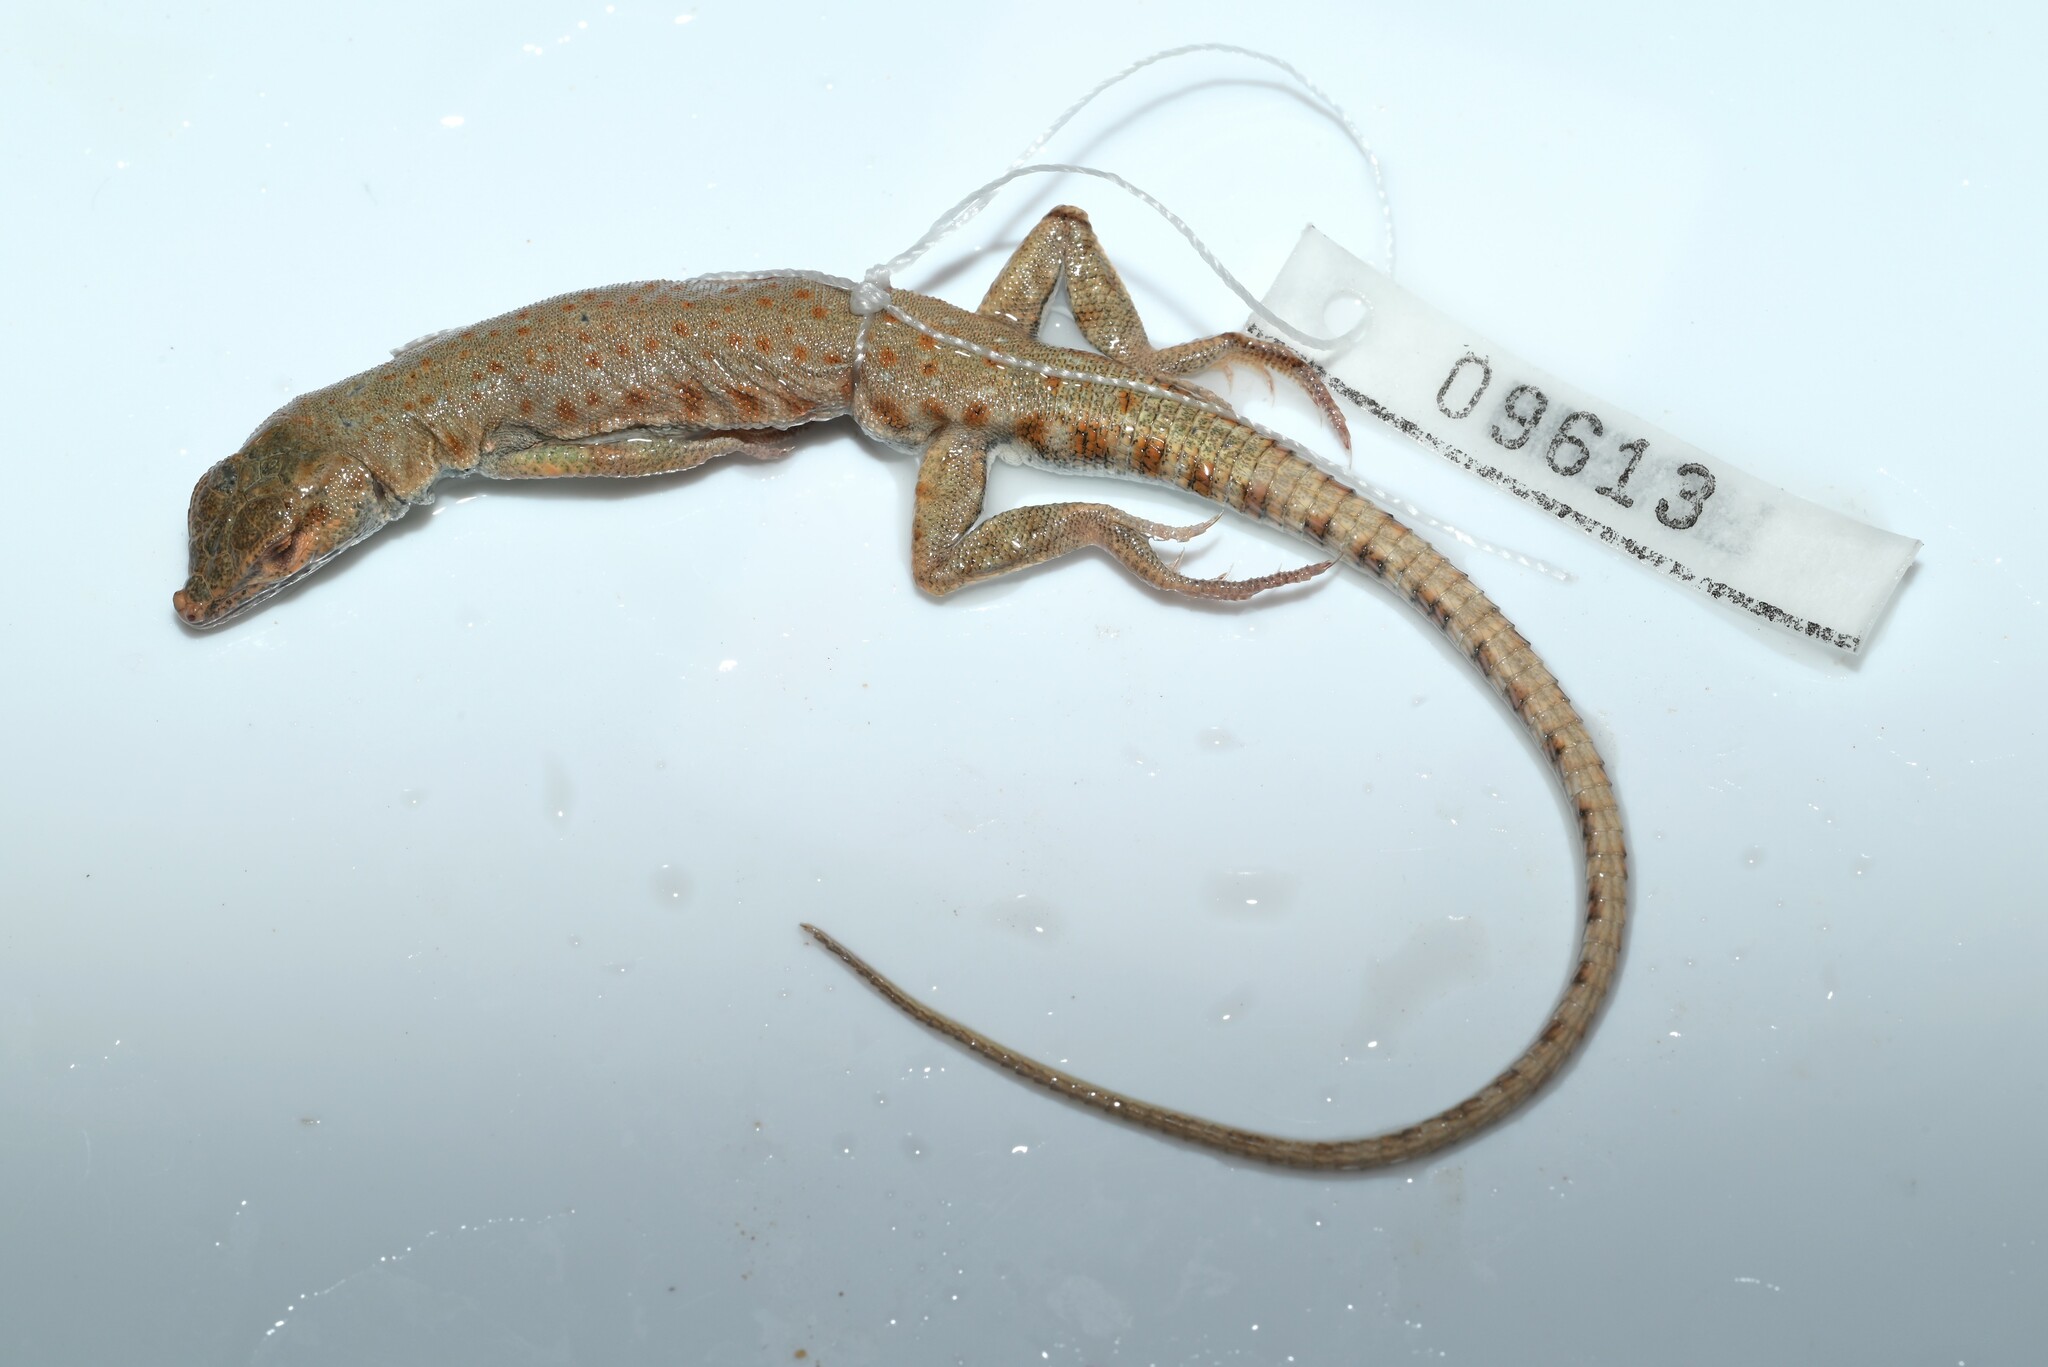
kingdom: Animalia
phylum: Chordata
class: Squamata
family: Lacertidae
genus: Mesalina
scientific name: Mesalina brevirostris
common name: Blanford's short-nosed desert lizard
